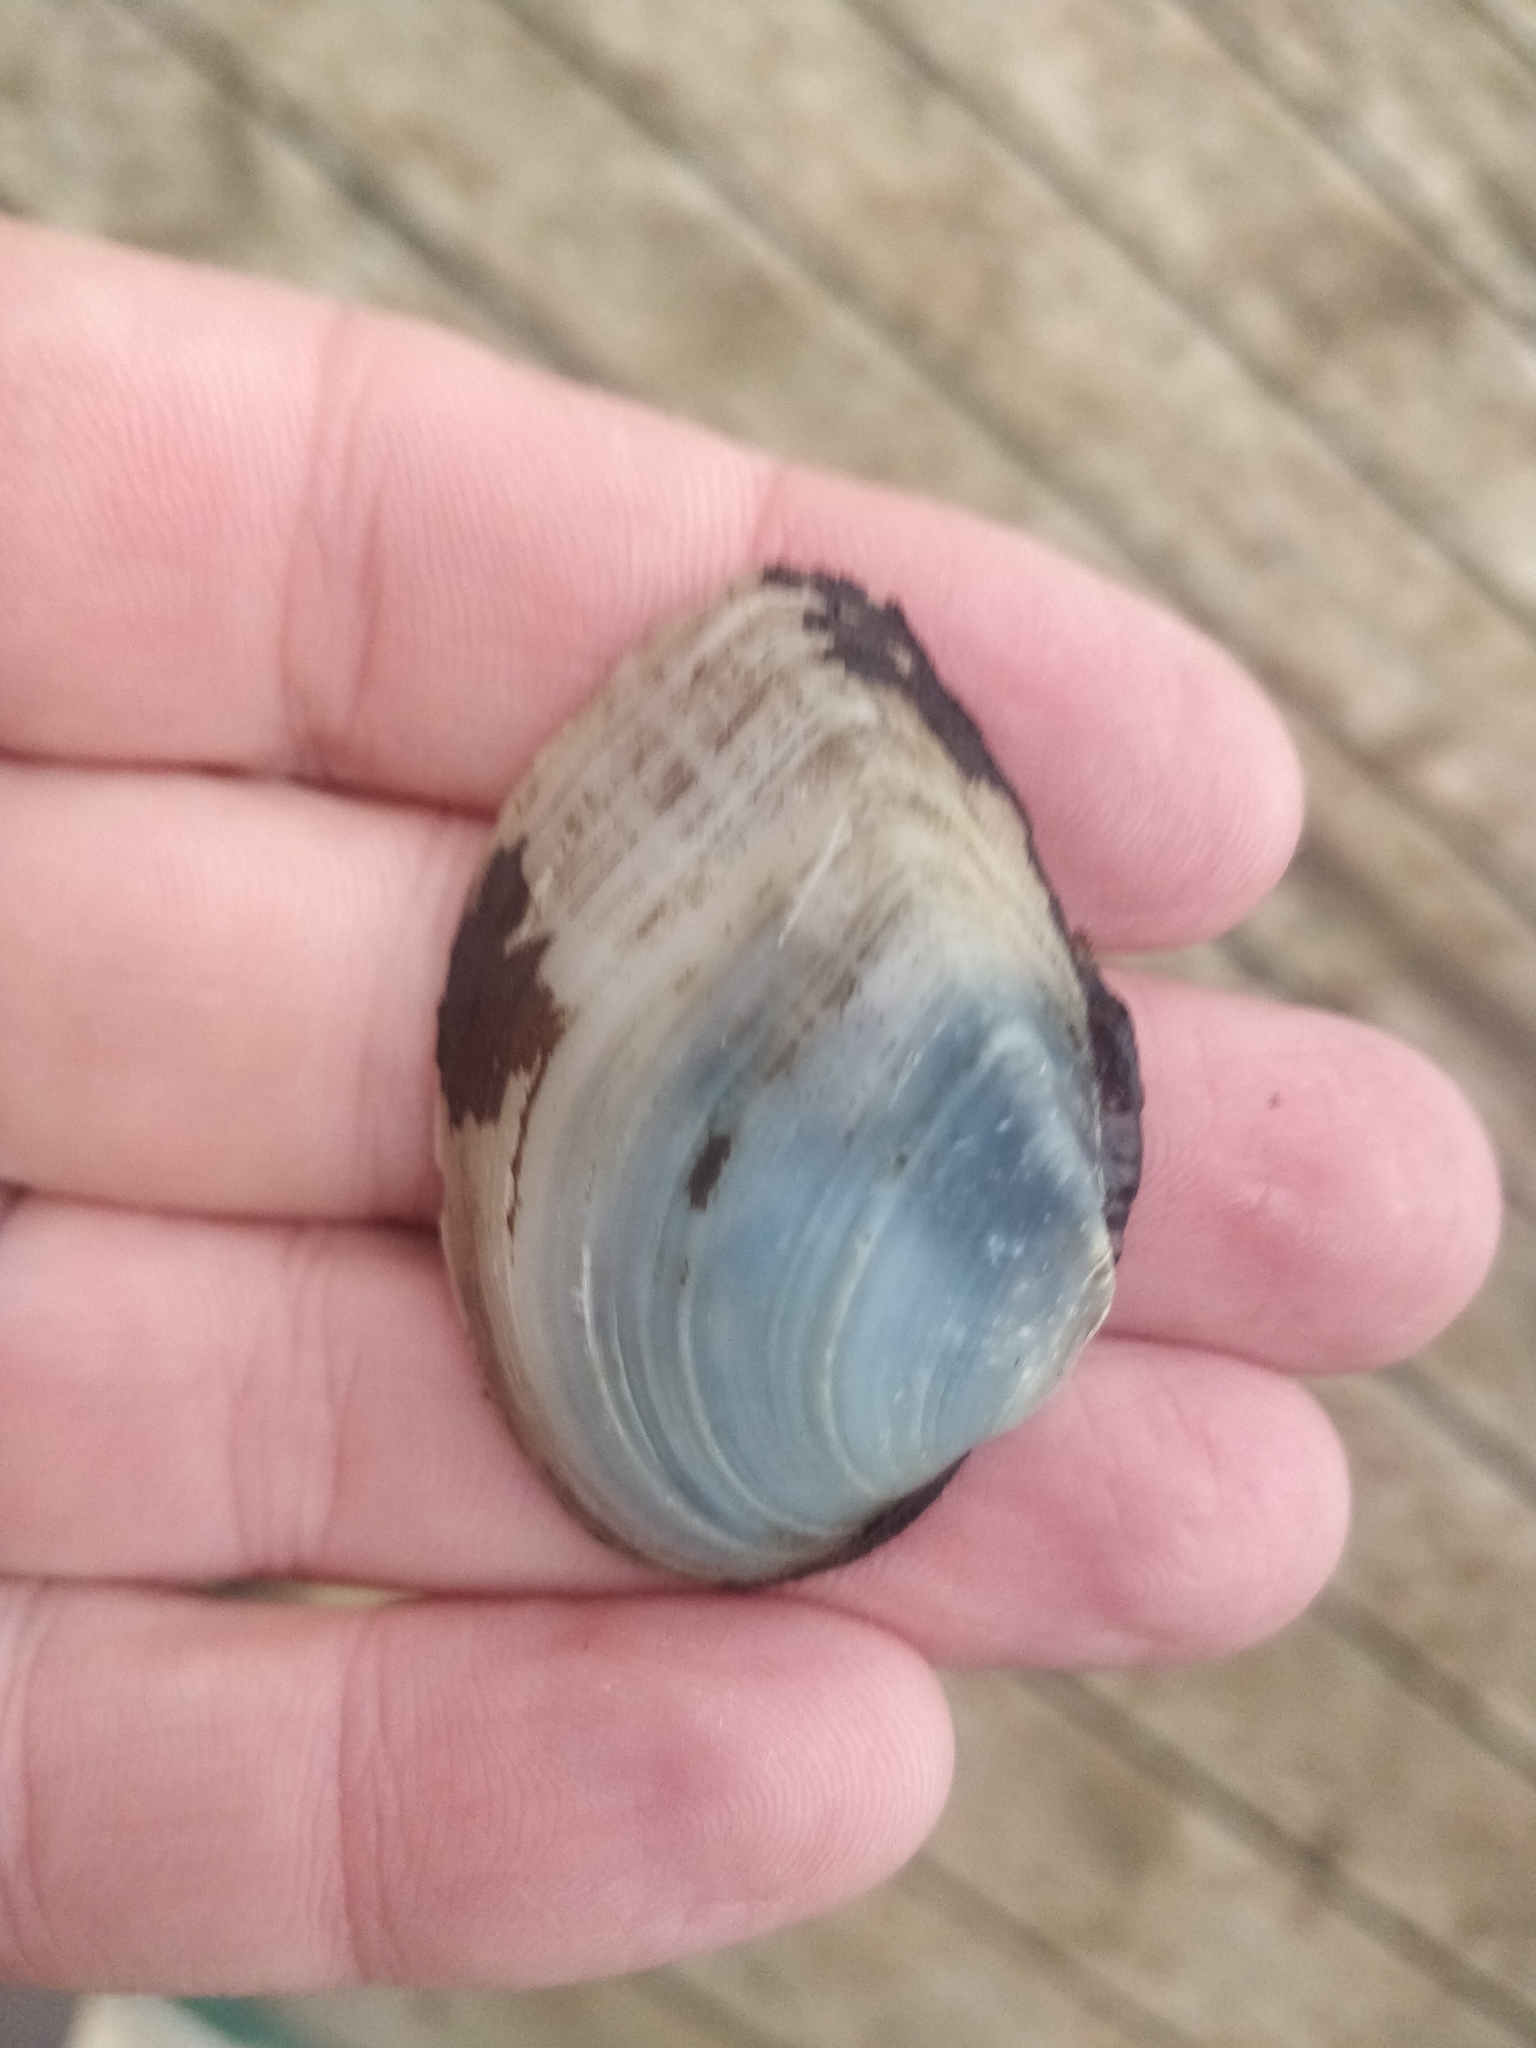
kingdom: Animalia
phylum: Mollusca
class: Bivalvia
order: Unionida
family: Unionidae
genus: Truncilla
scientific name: Truncilla truncata
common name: Deertoe
